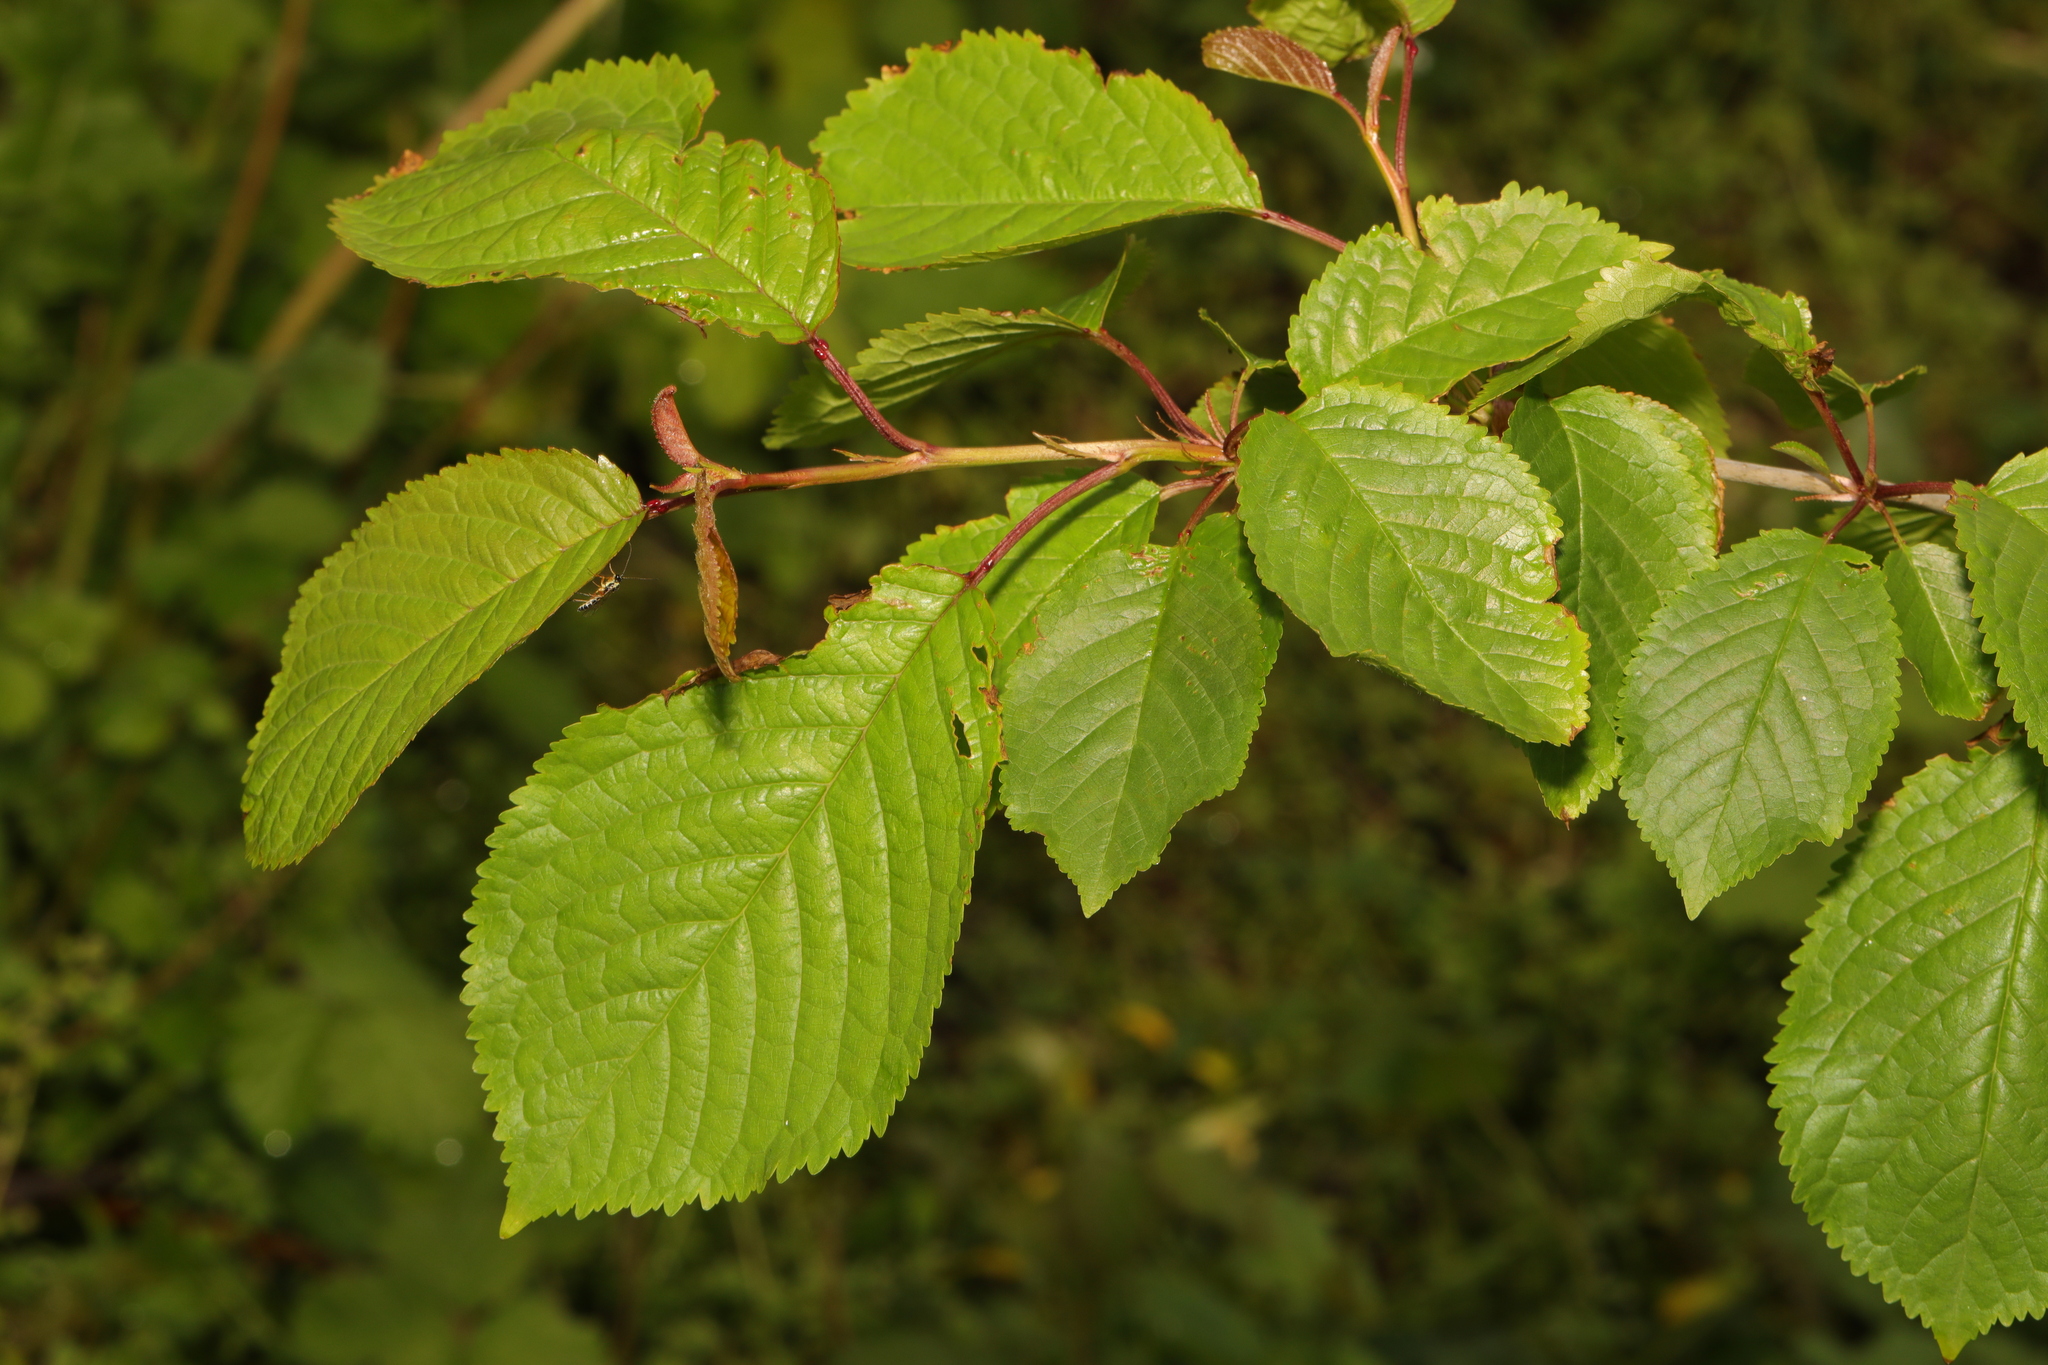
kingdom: Plantae
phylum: Tracheophyta
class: Magnoliopsida
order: Rosales
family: Rosaceae
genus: Prunus
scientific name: Prunus avium
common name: Sweet cherry
